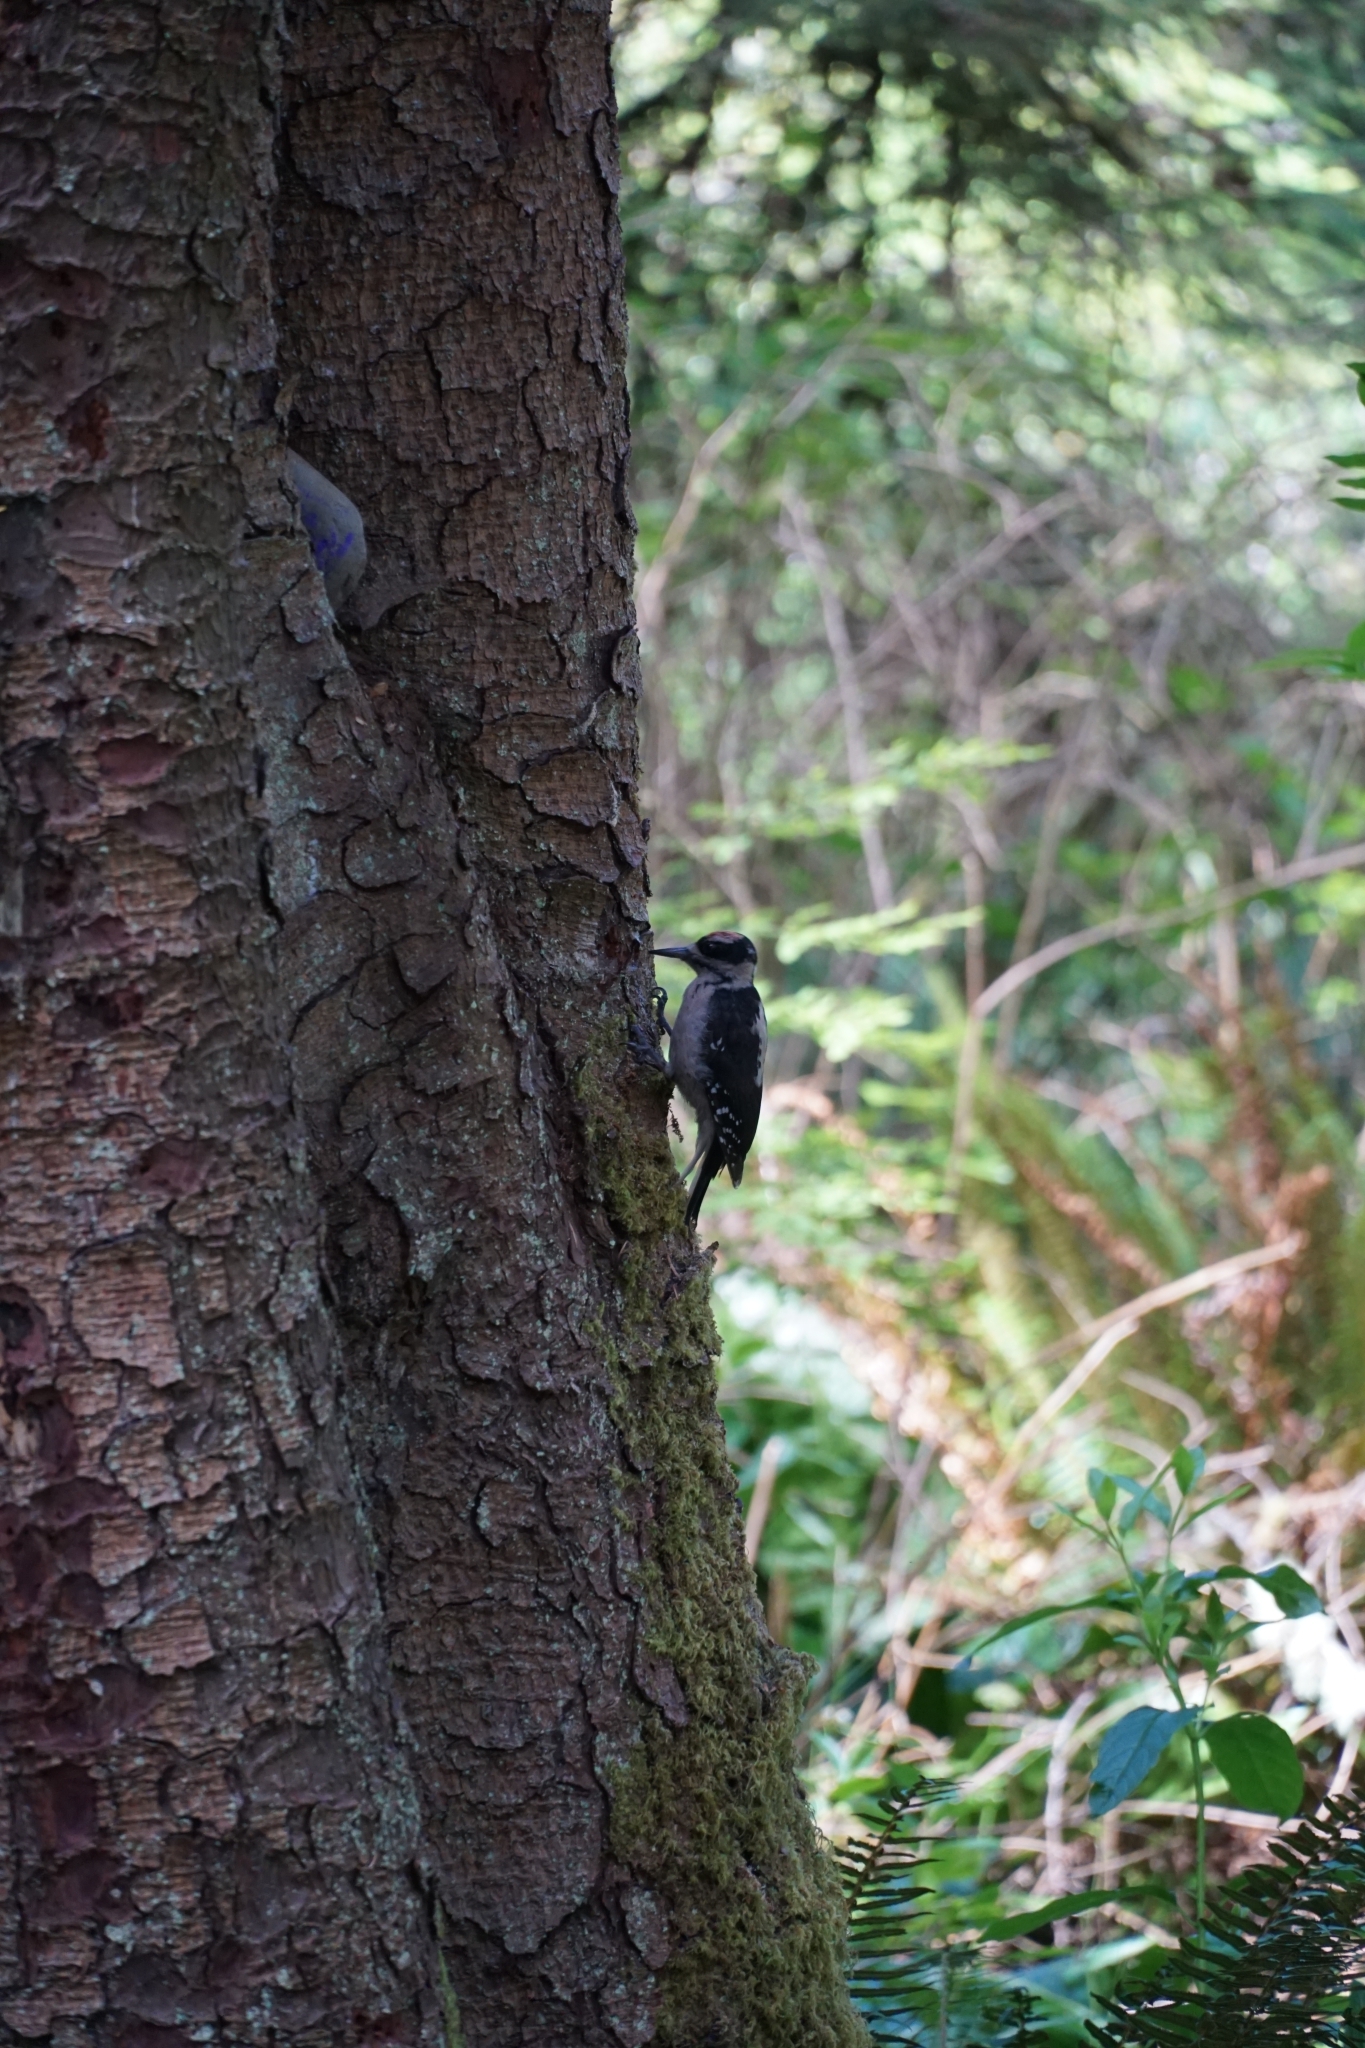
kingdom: Animalia
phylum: Chordata
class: Aves
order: Piciformes
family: Picidae
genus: Leuconotopicus
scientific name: Leuconotopicus villosus
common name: Hairy woodpecker
